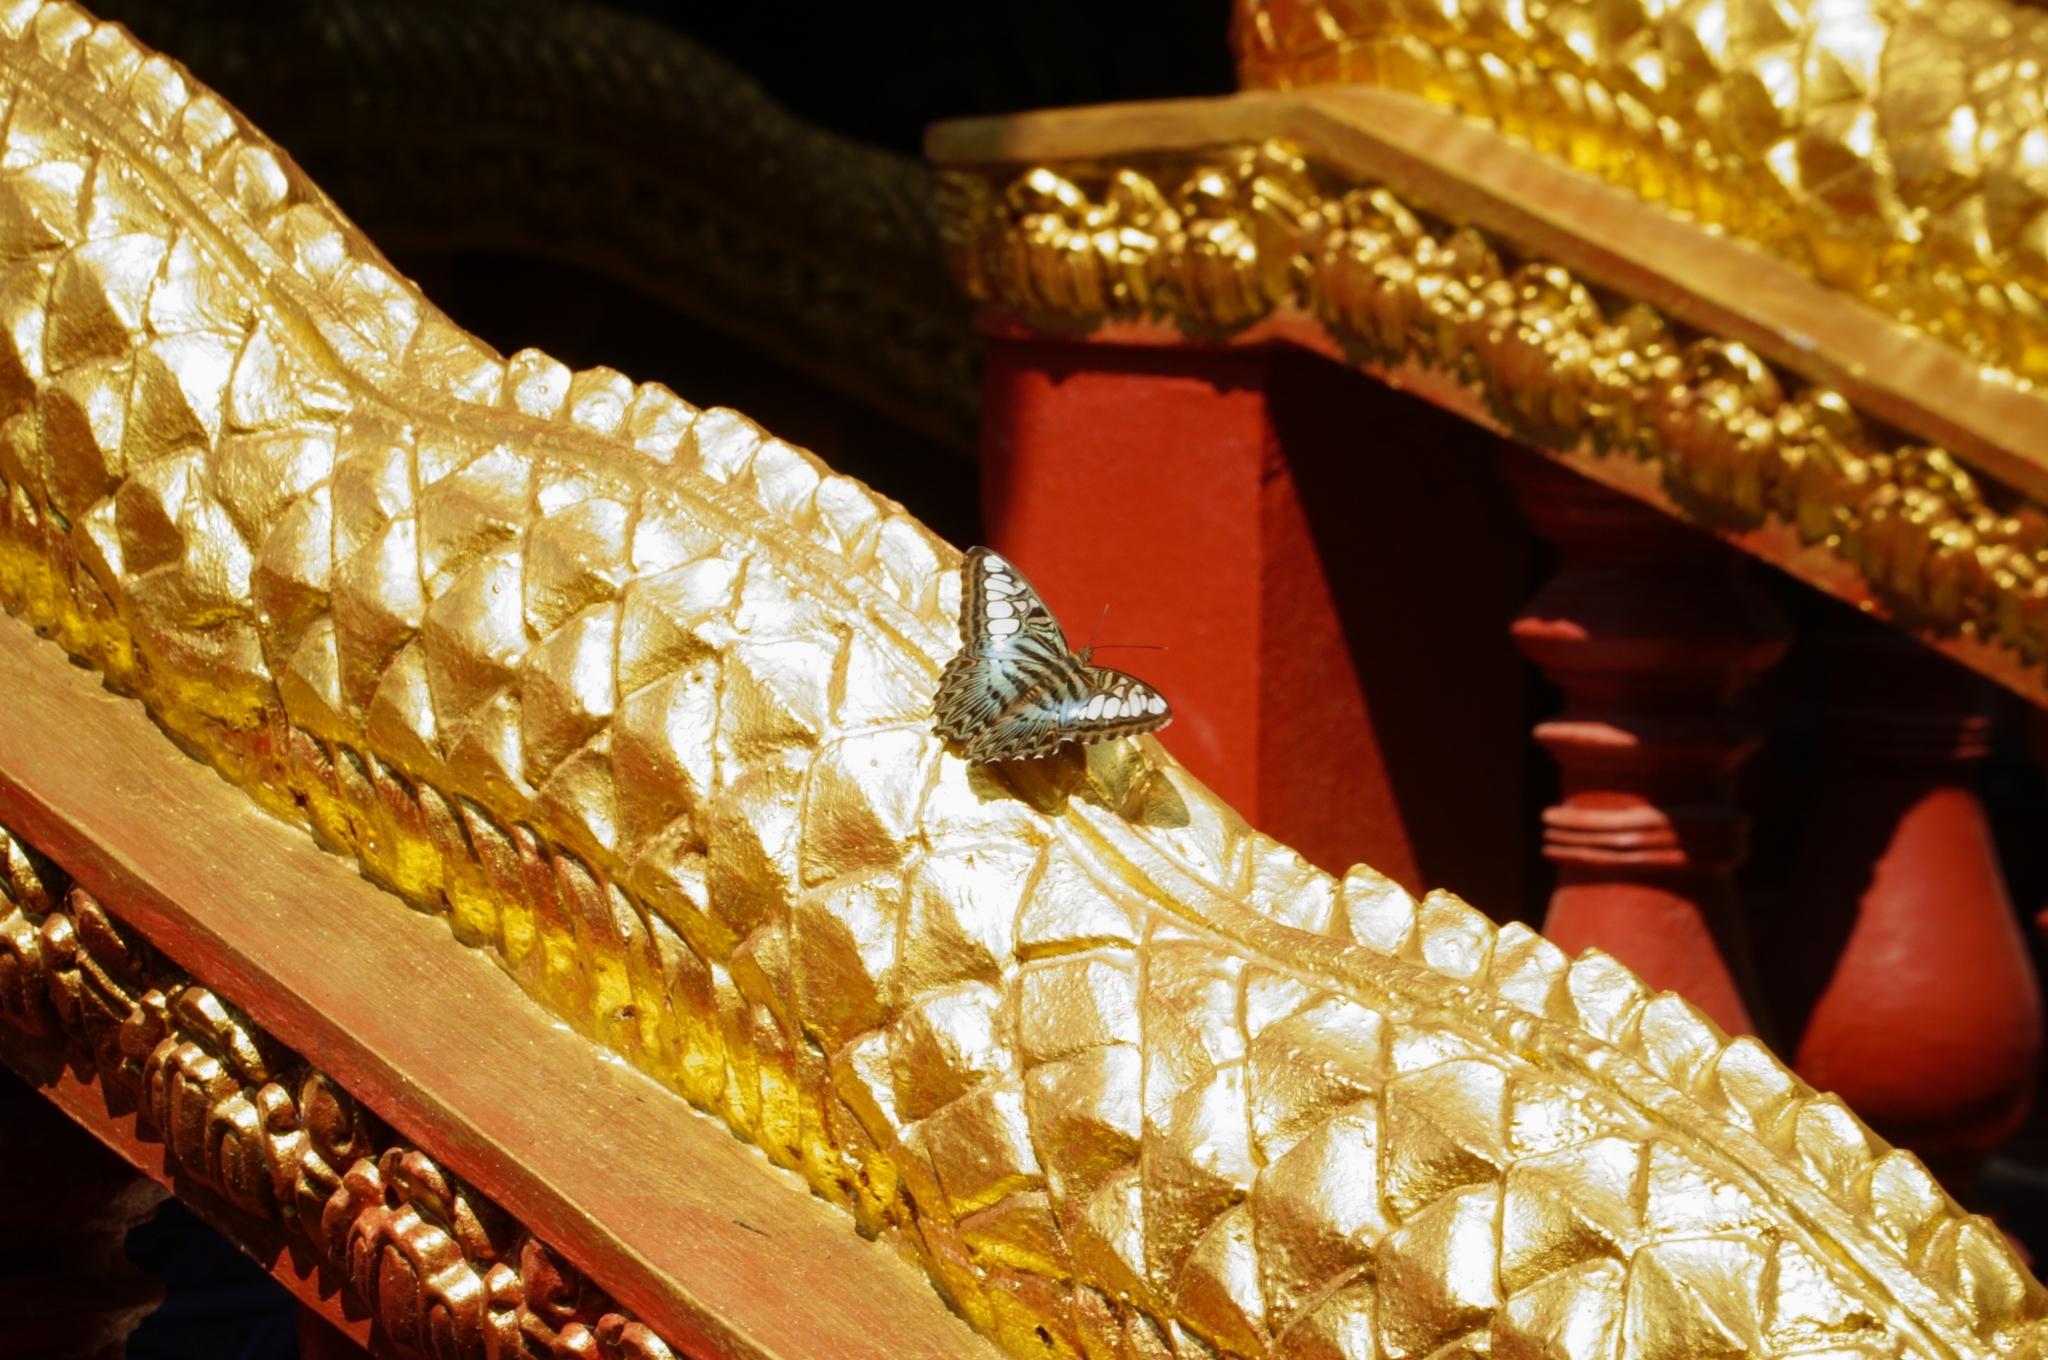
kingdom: Animalia
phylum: Arthropoda
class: Insecta
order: Lepidoptera
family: Nymphalidae
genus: Kallima
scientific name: Kallima sylvia
